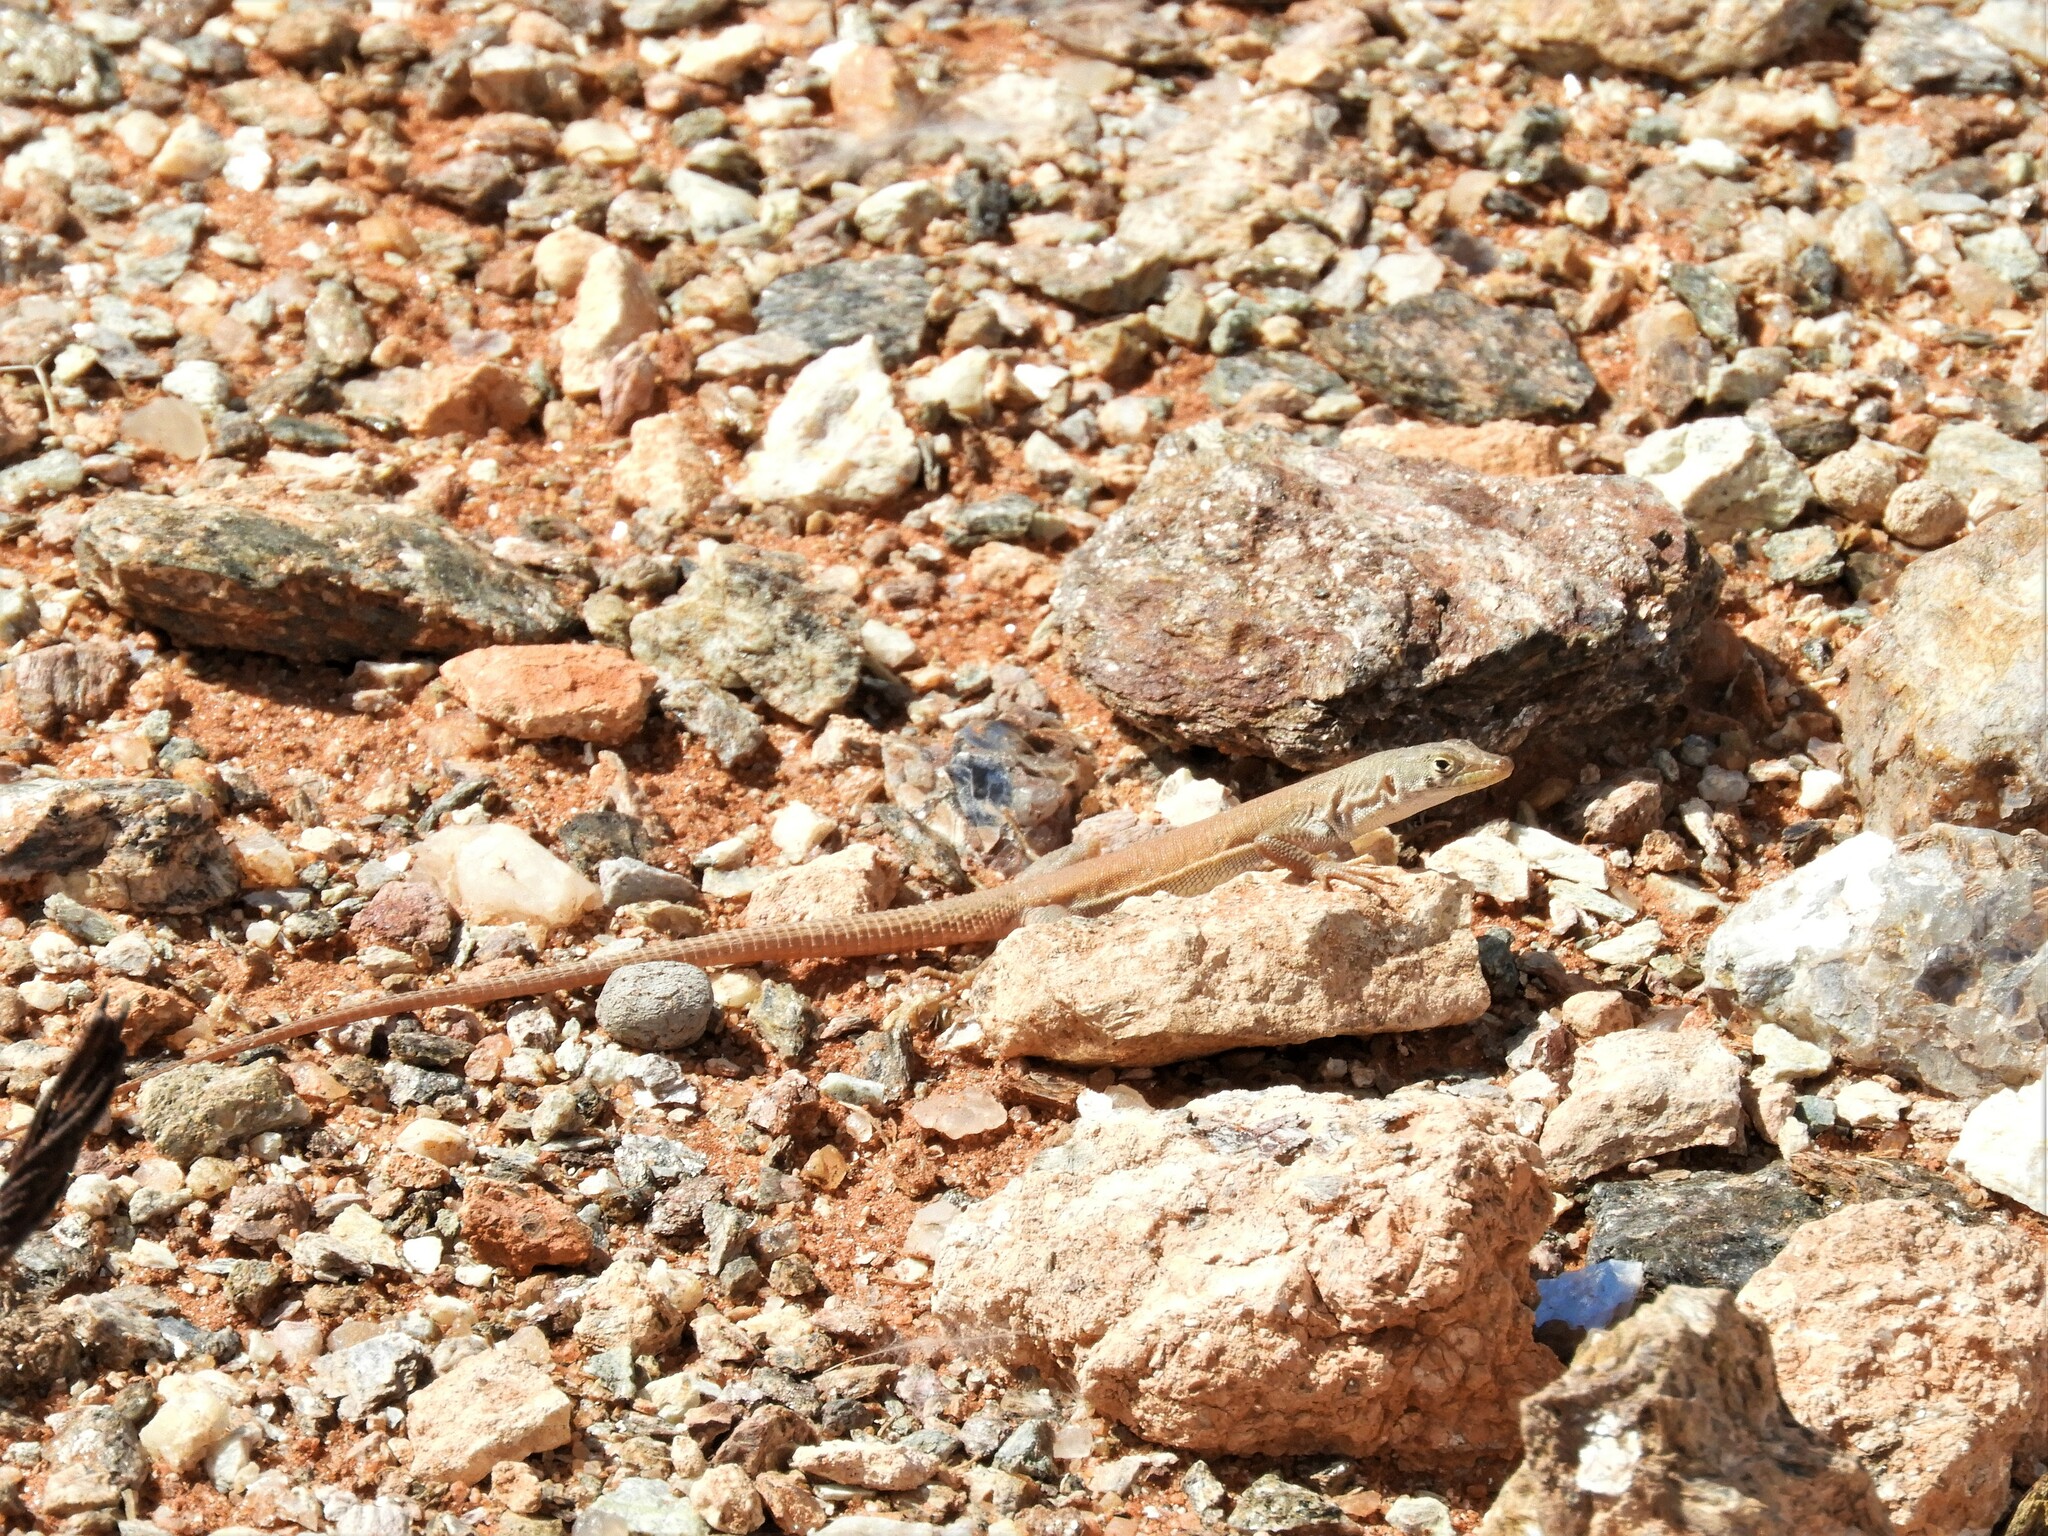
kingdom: Animalia
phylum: Chordata
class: Squamata
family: Lacertidae
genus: Pedioplanis
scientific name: Pedioplanis inornata
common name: Plain sand lizard
